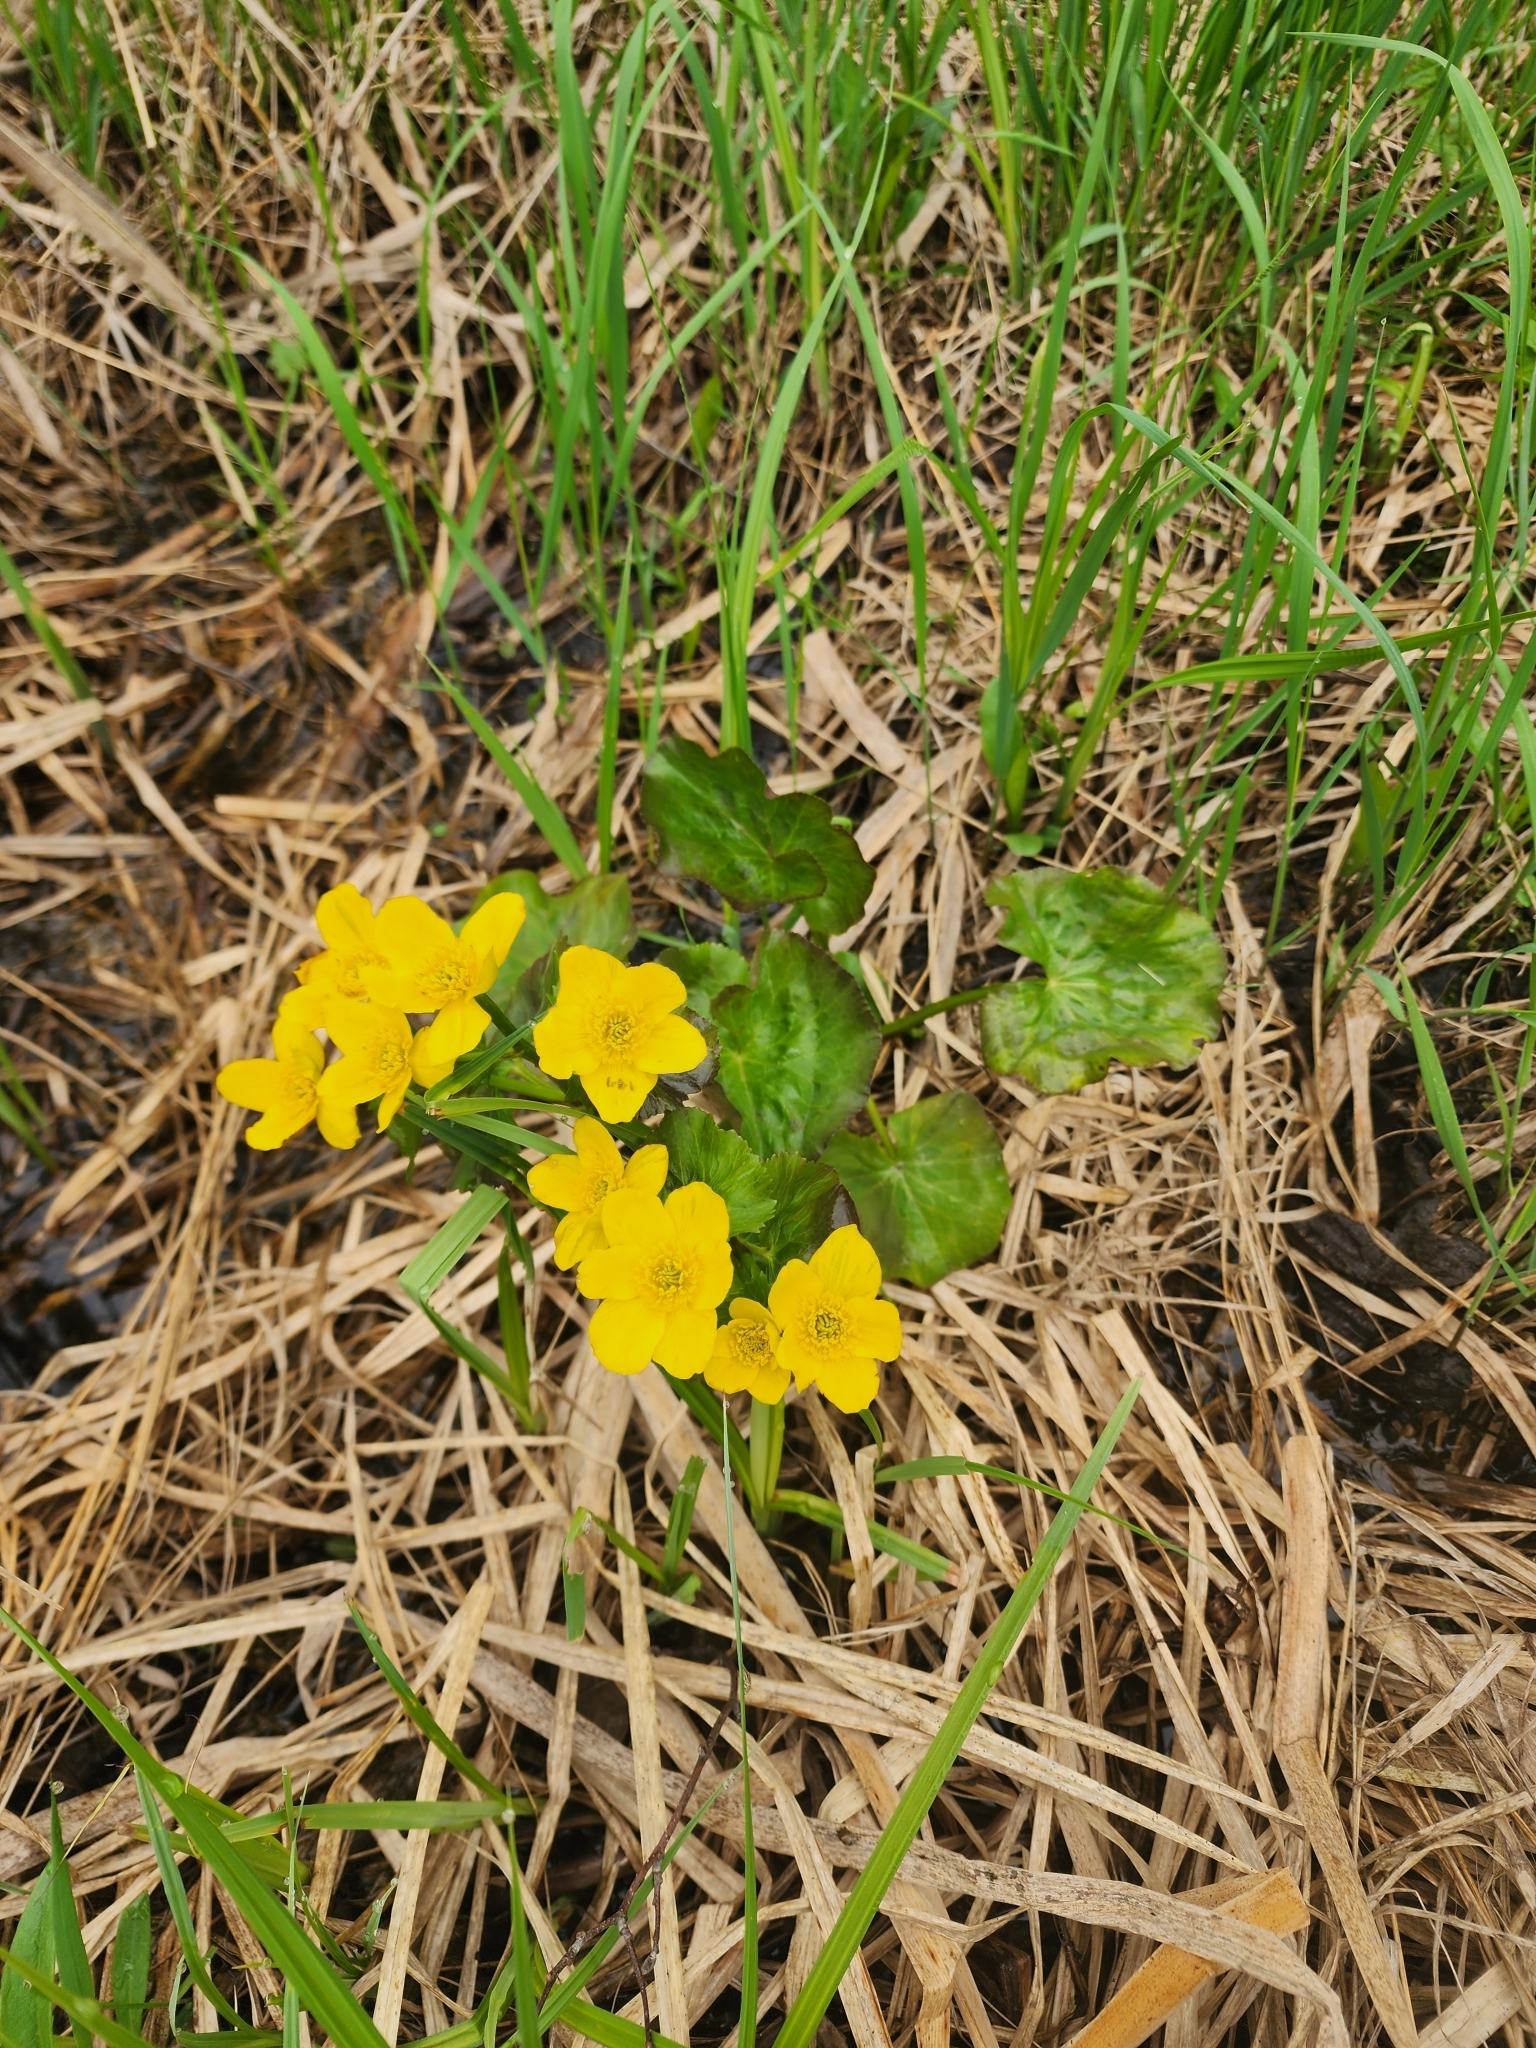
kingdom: Plantae
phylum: Tracheophyta
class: Magnoliopsida
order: Ranunculales
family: Ranunculaceae
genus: Caltha
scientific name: Caltha palustris
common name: Marsh marigold
